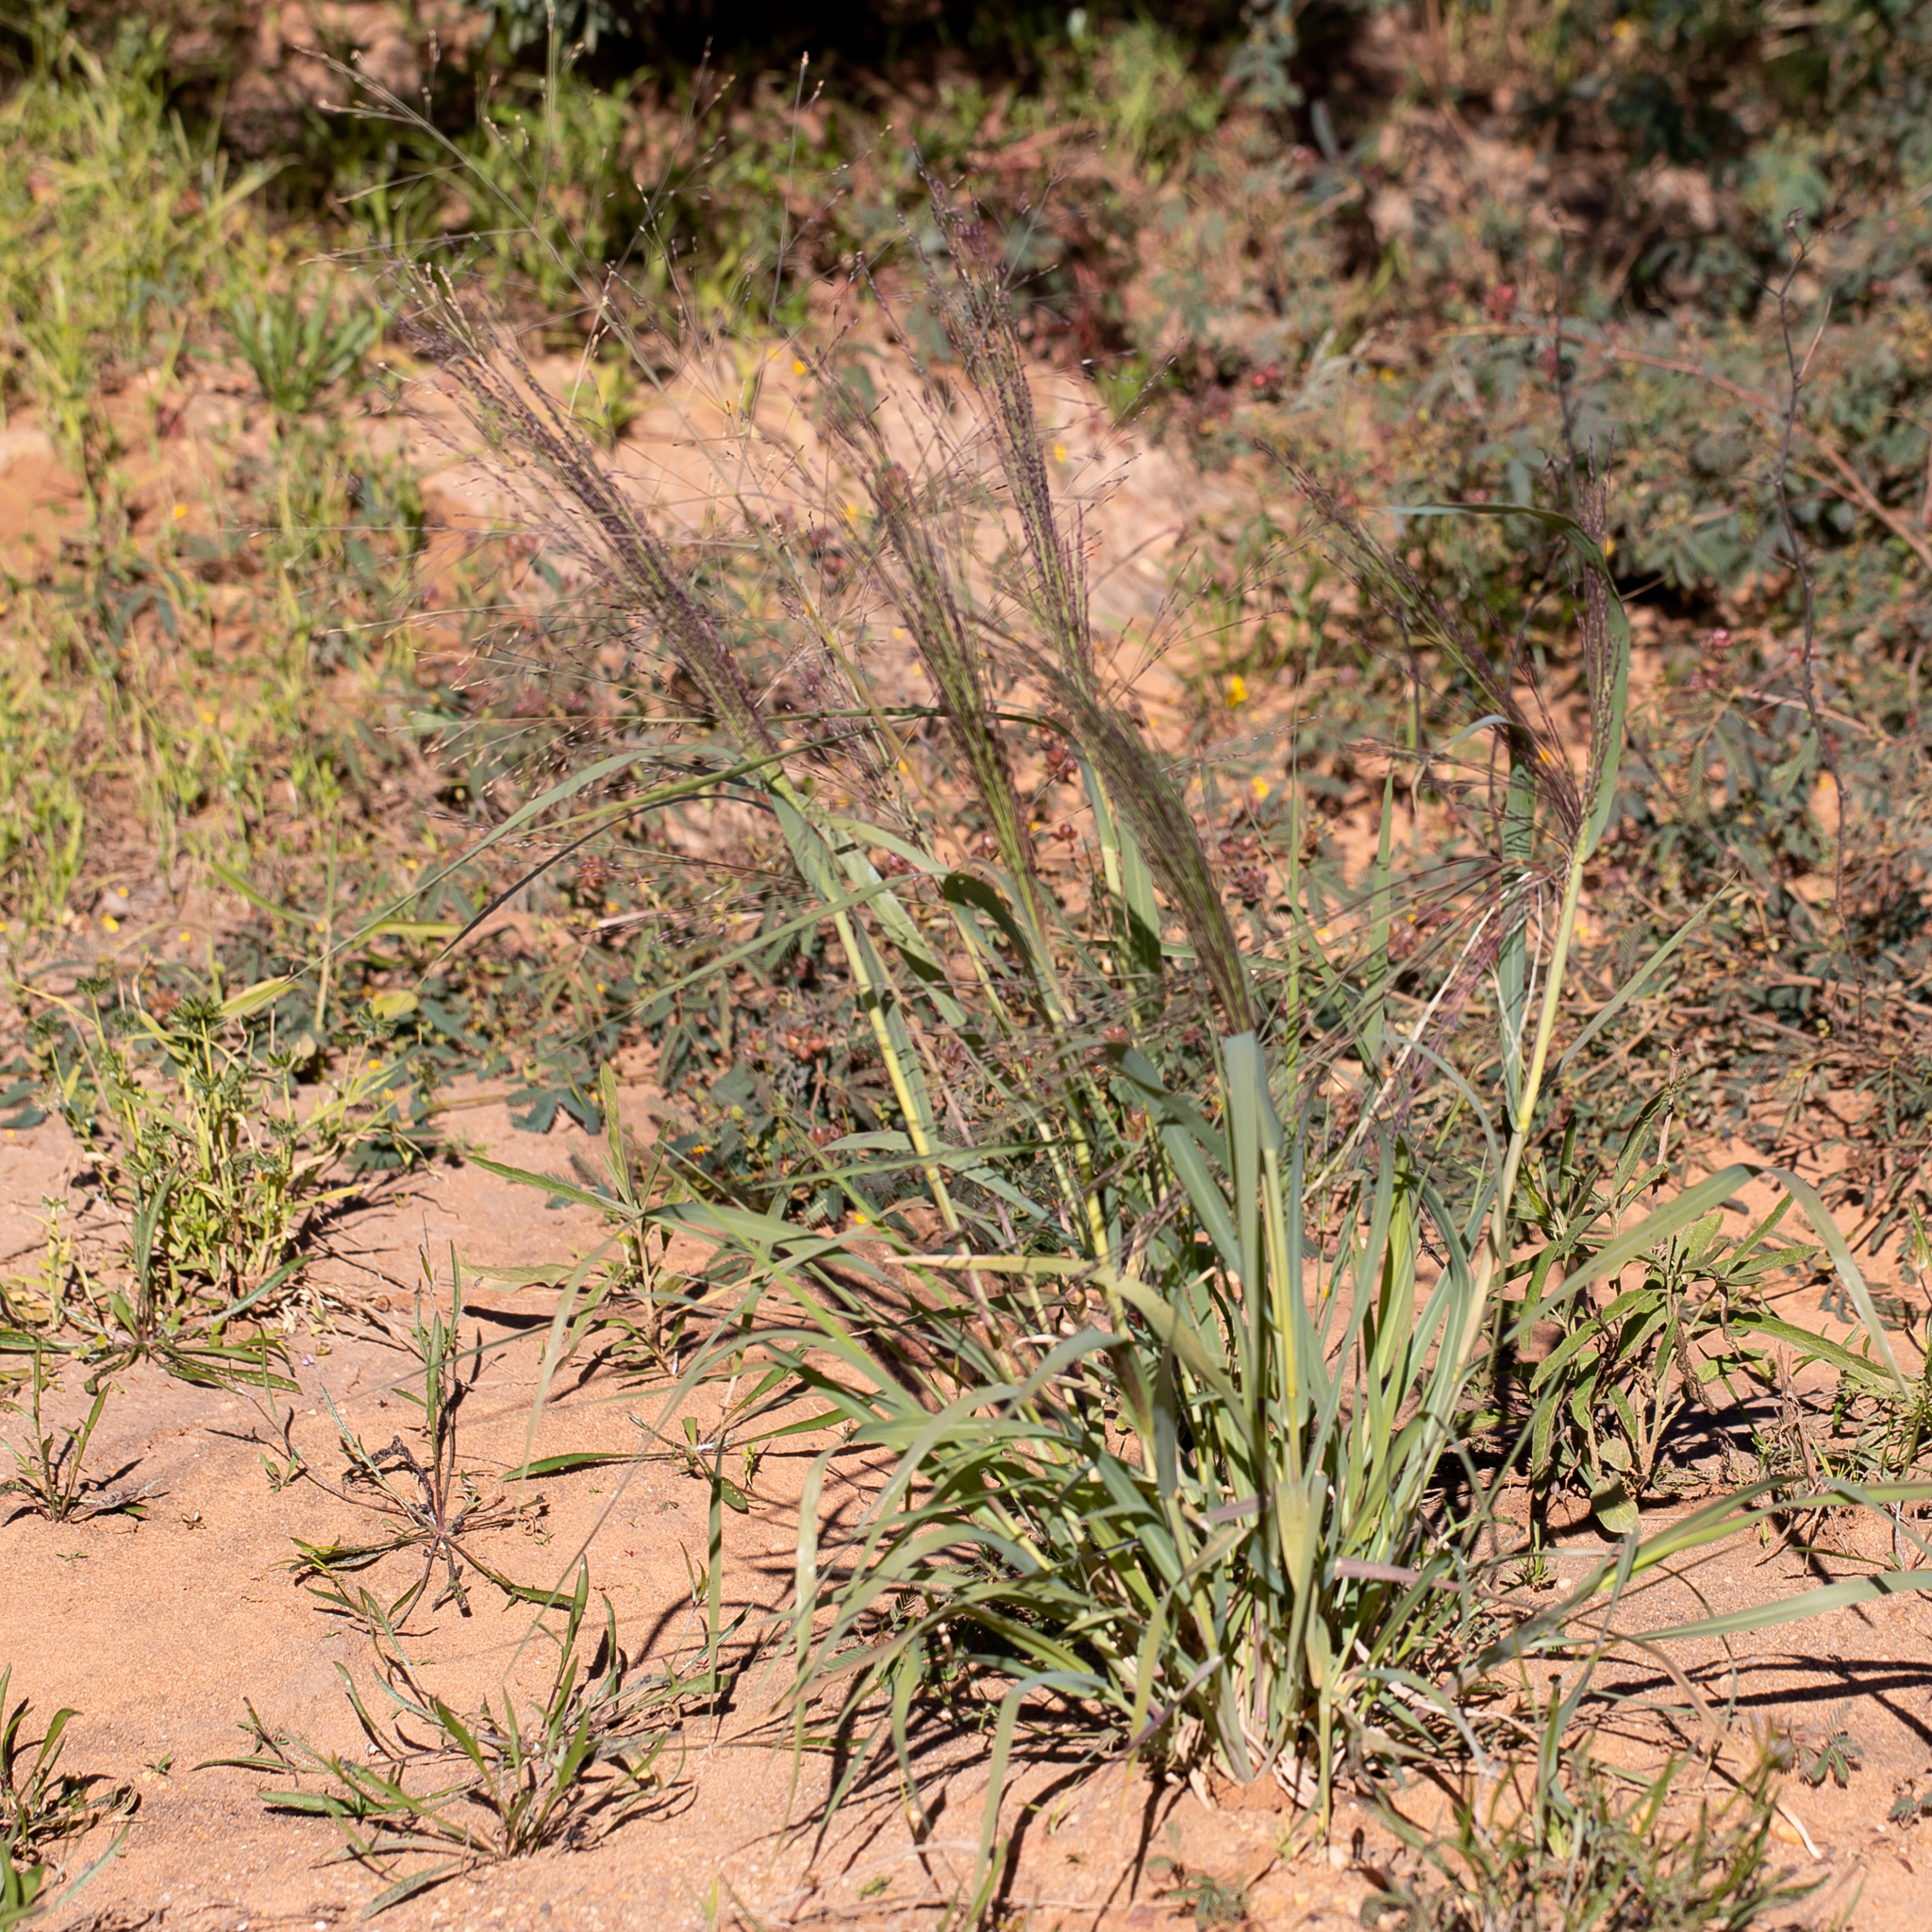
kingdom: Plantae
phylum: Tracheophyta
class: Liliopsida
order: Poales
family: Poaceae
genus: Panicum
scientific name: Panicum decompositum
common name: Australian millet
